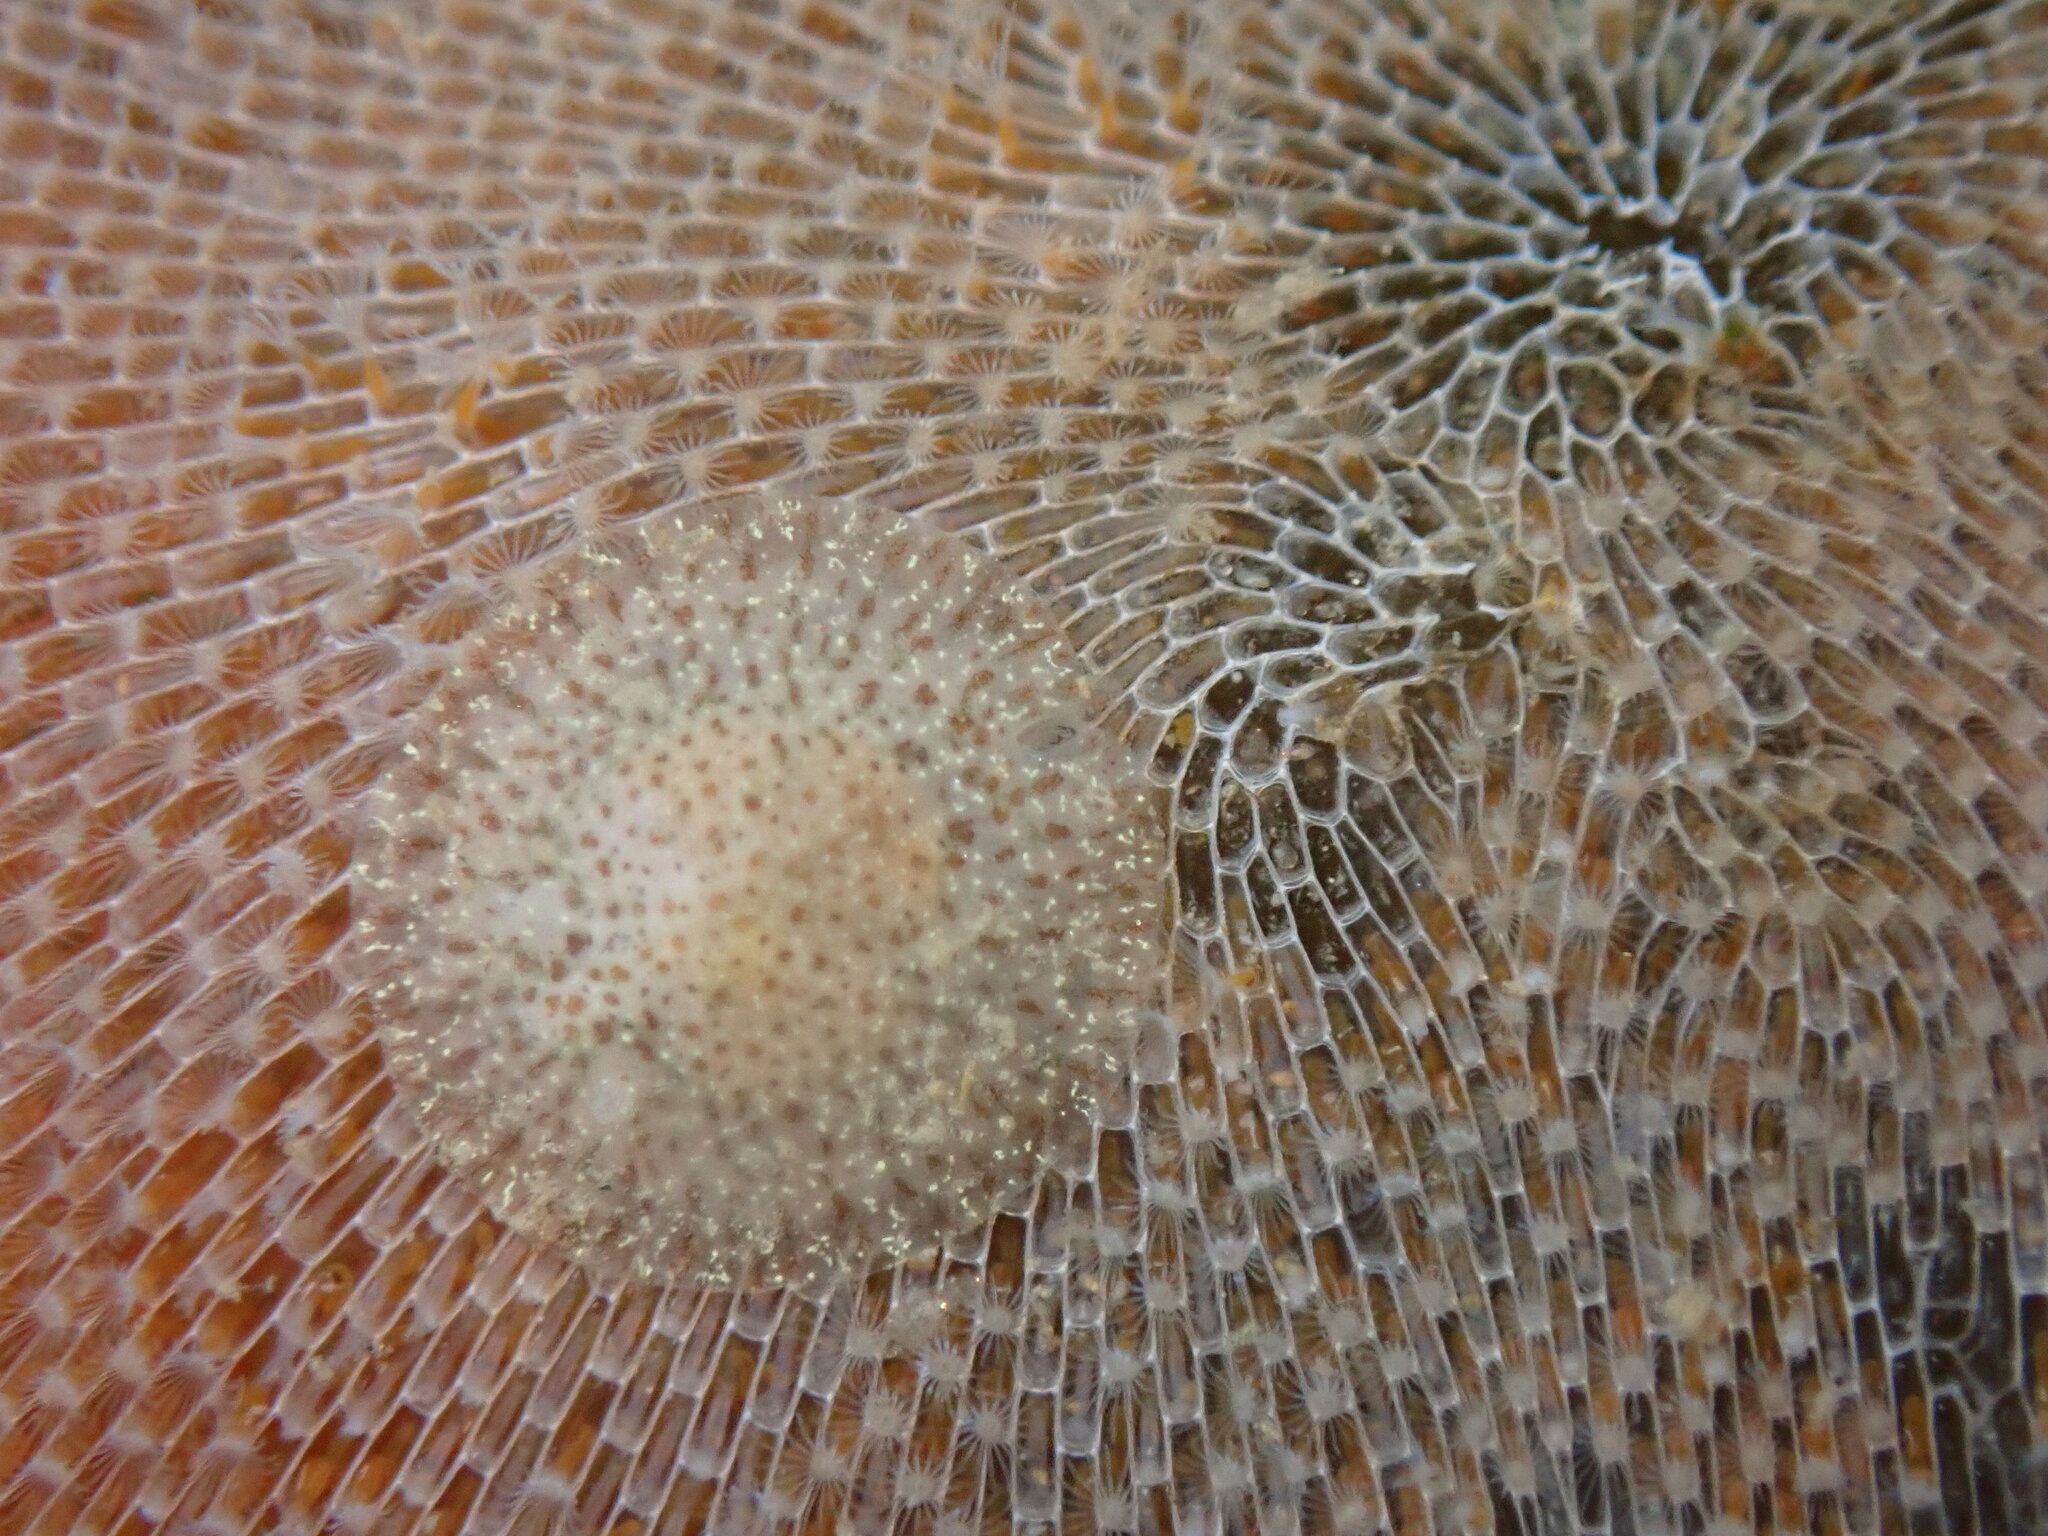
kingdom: Animalia
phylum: Mollusca
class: Gastropoda
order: Nudibranchia
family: Corambidae
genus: Corambe
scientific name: Corambe pacifica
